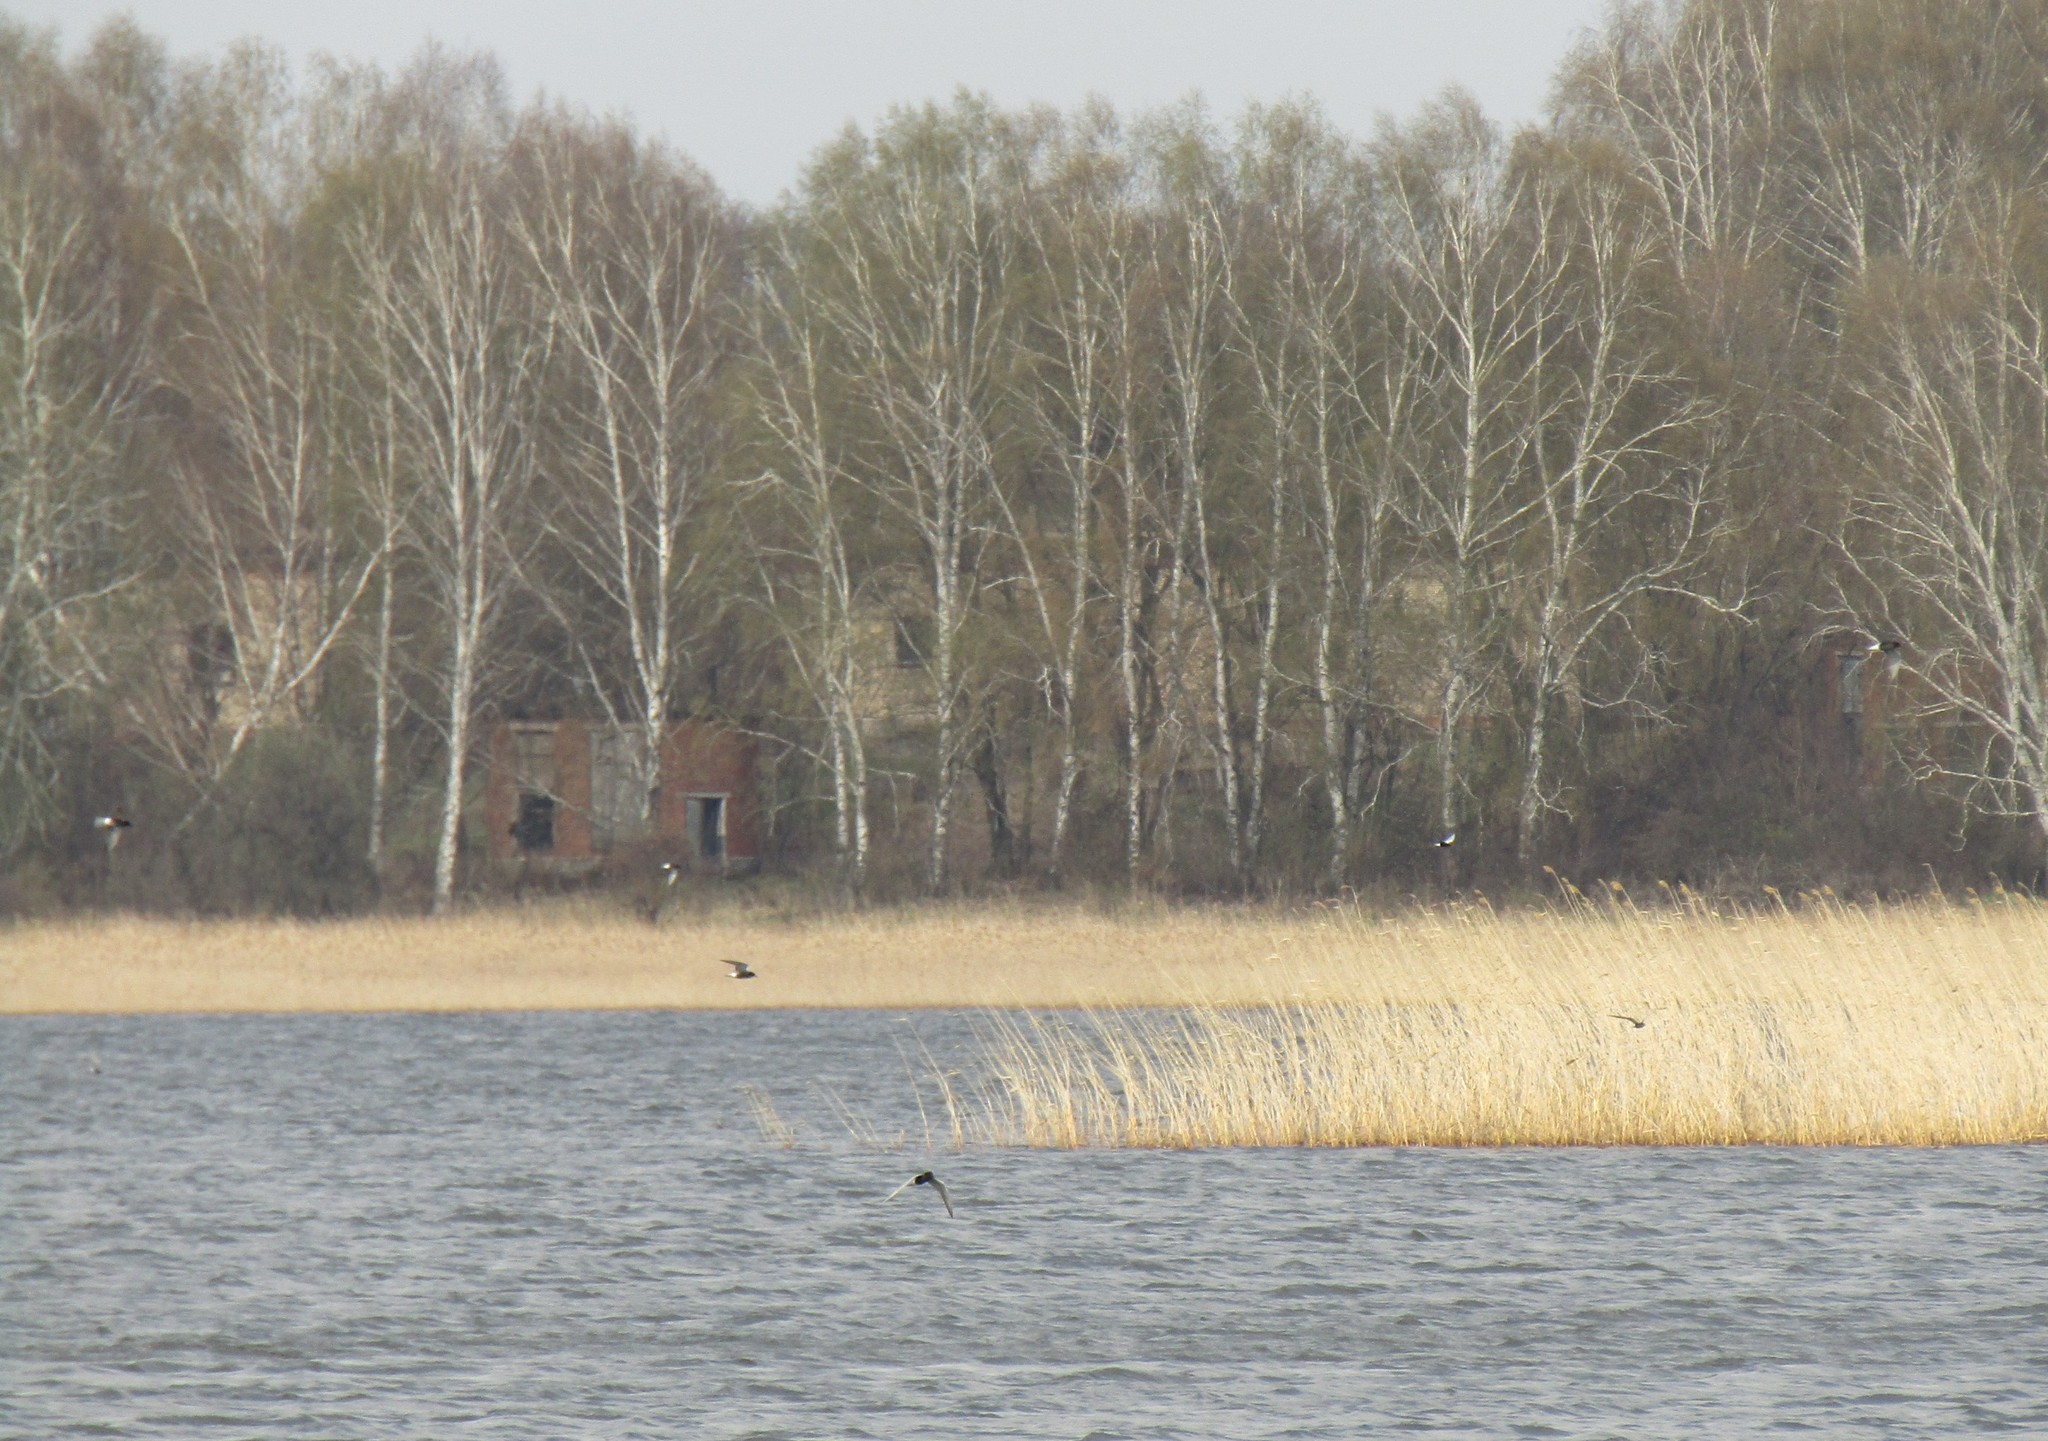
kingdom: Animalia
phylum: Chordata
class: Aves
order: Charadriiformes
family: Laridae
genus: Chlidonias
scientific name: Chlidonias niger
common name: Black tern
